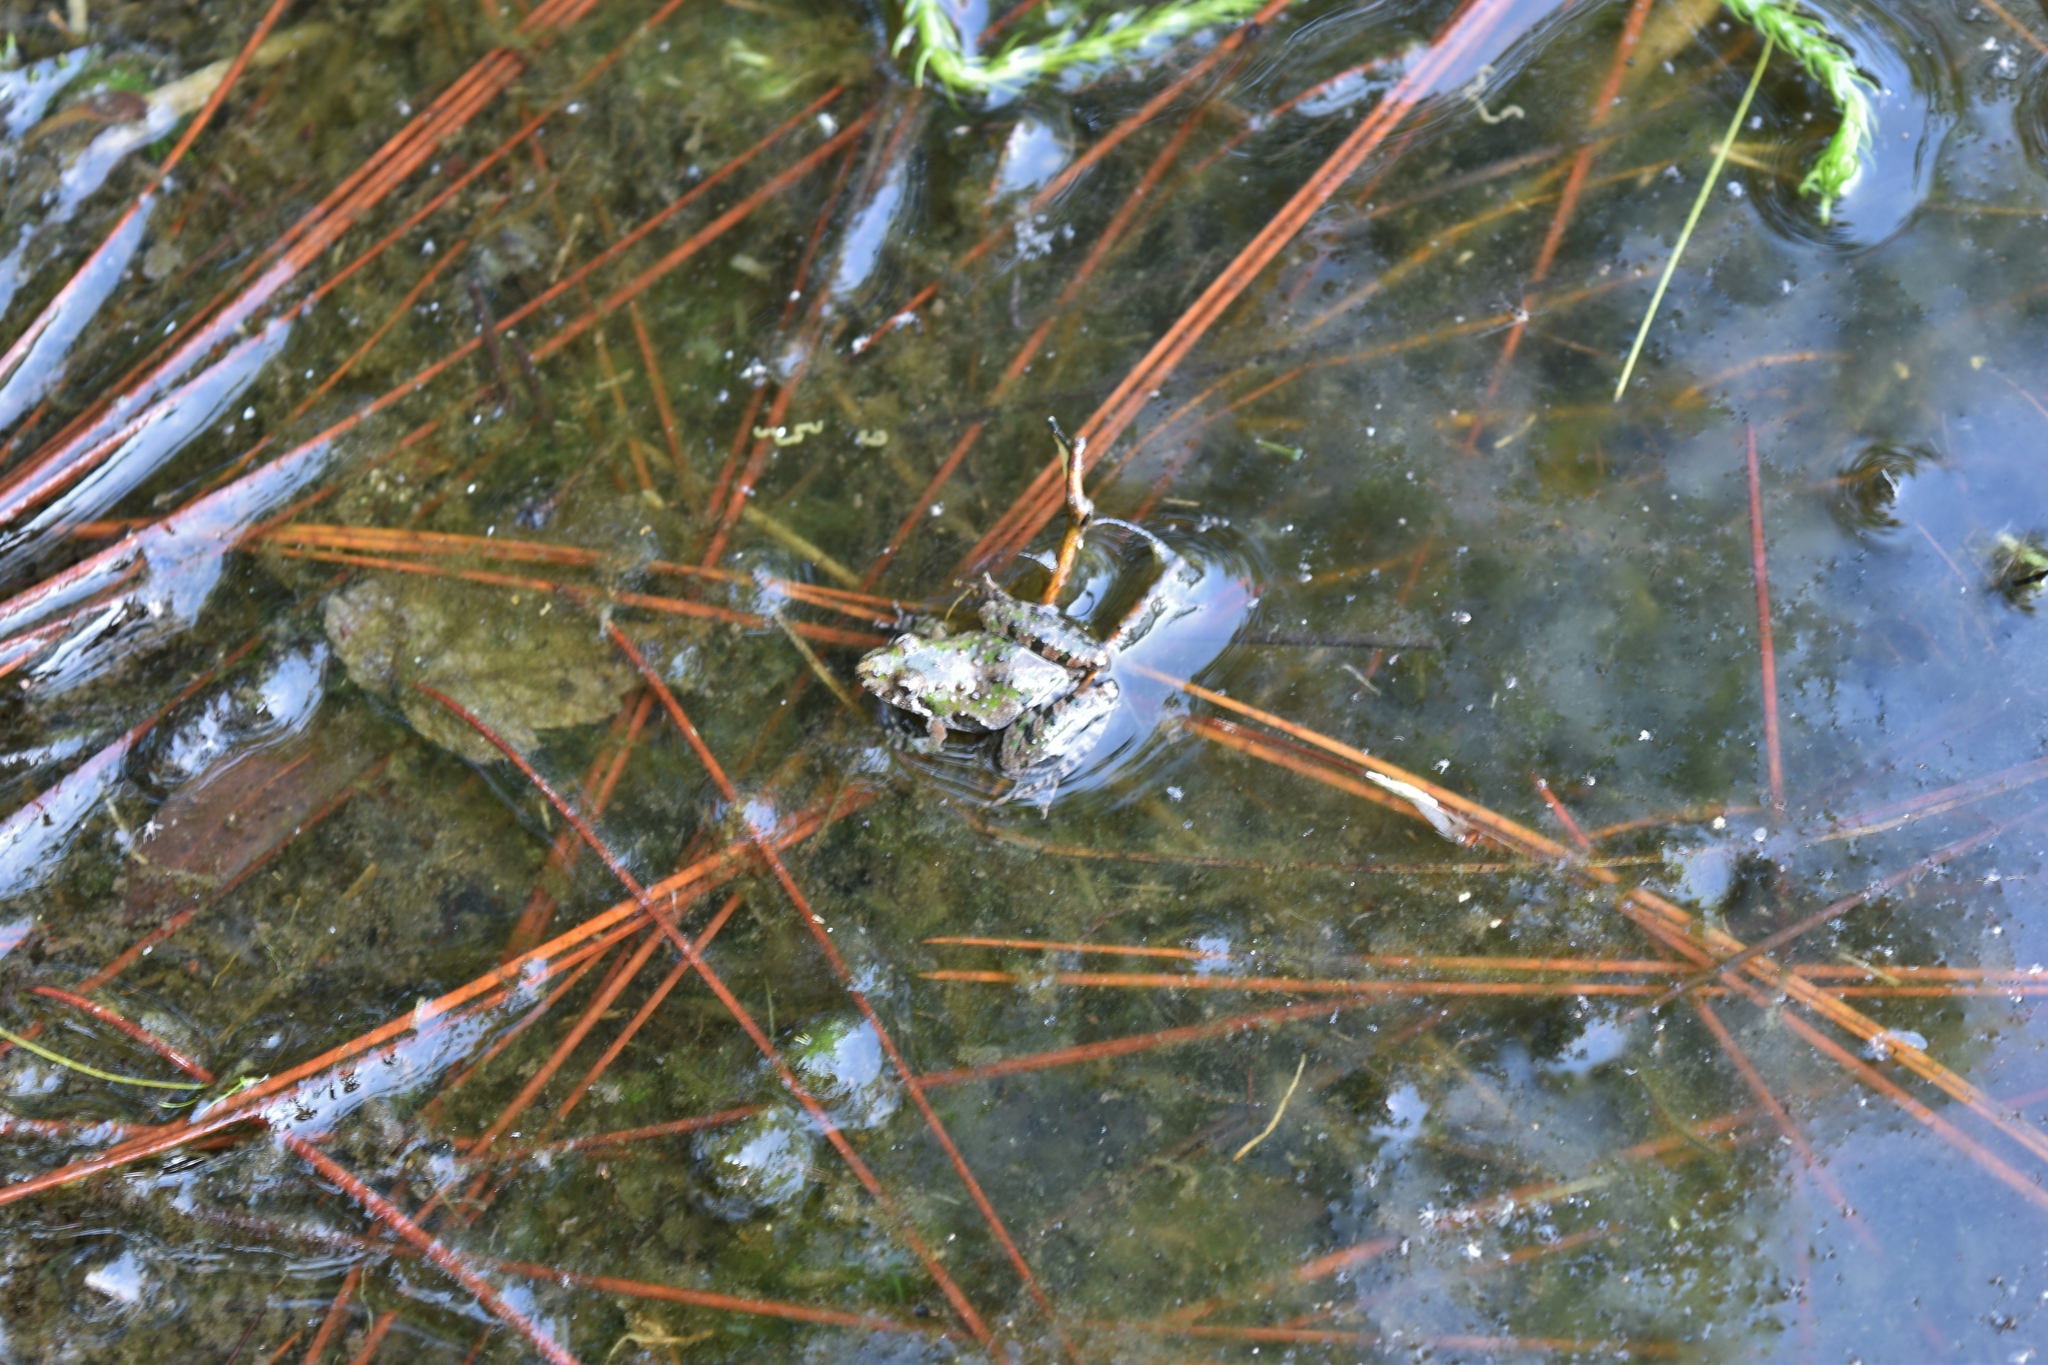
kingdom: Animalia
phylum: Chordata
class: Amphibia
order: Anura
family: Hylidae
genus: Acris
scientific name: Acris gryllus
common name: Southern cricket frog
